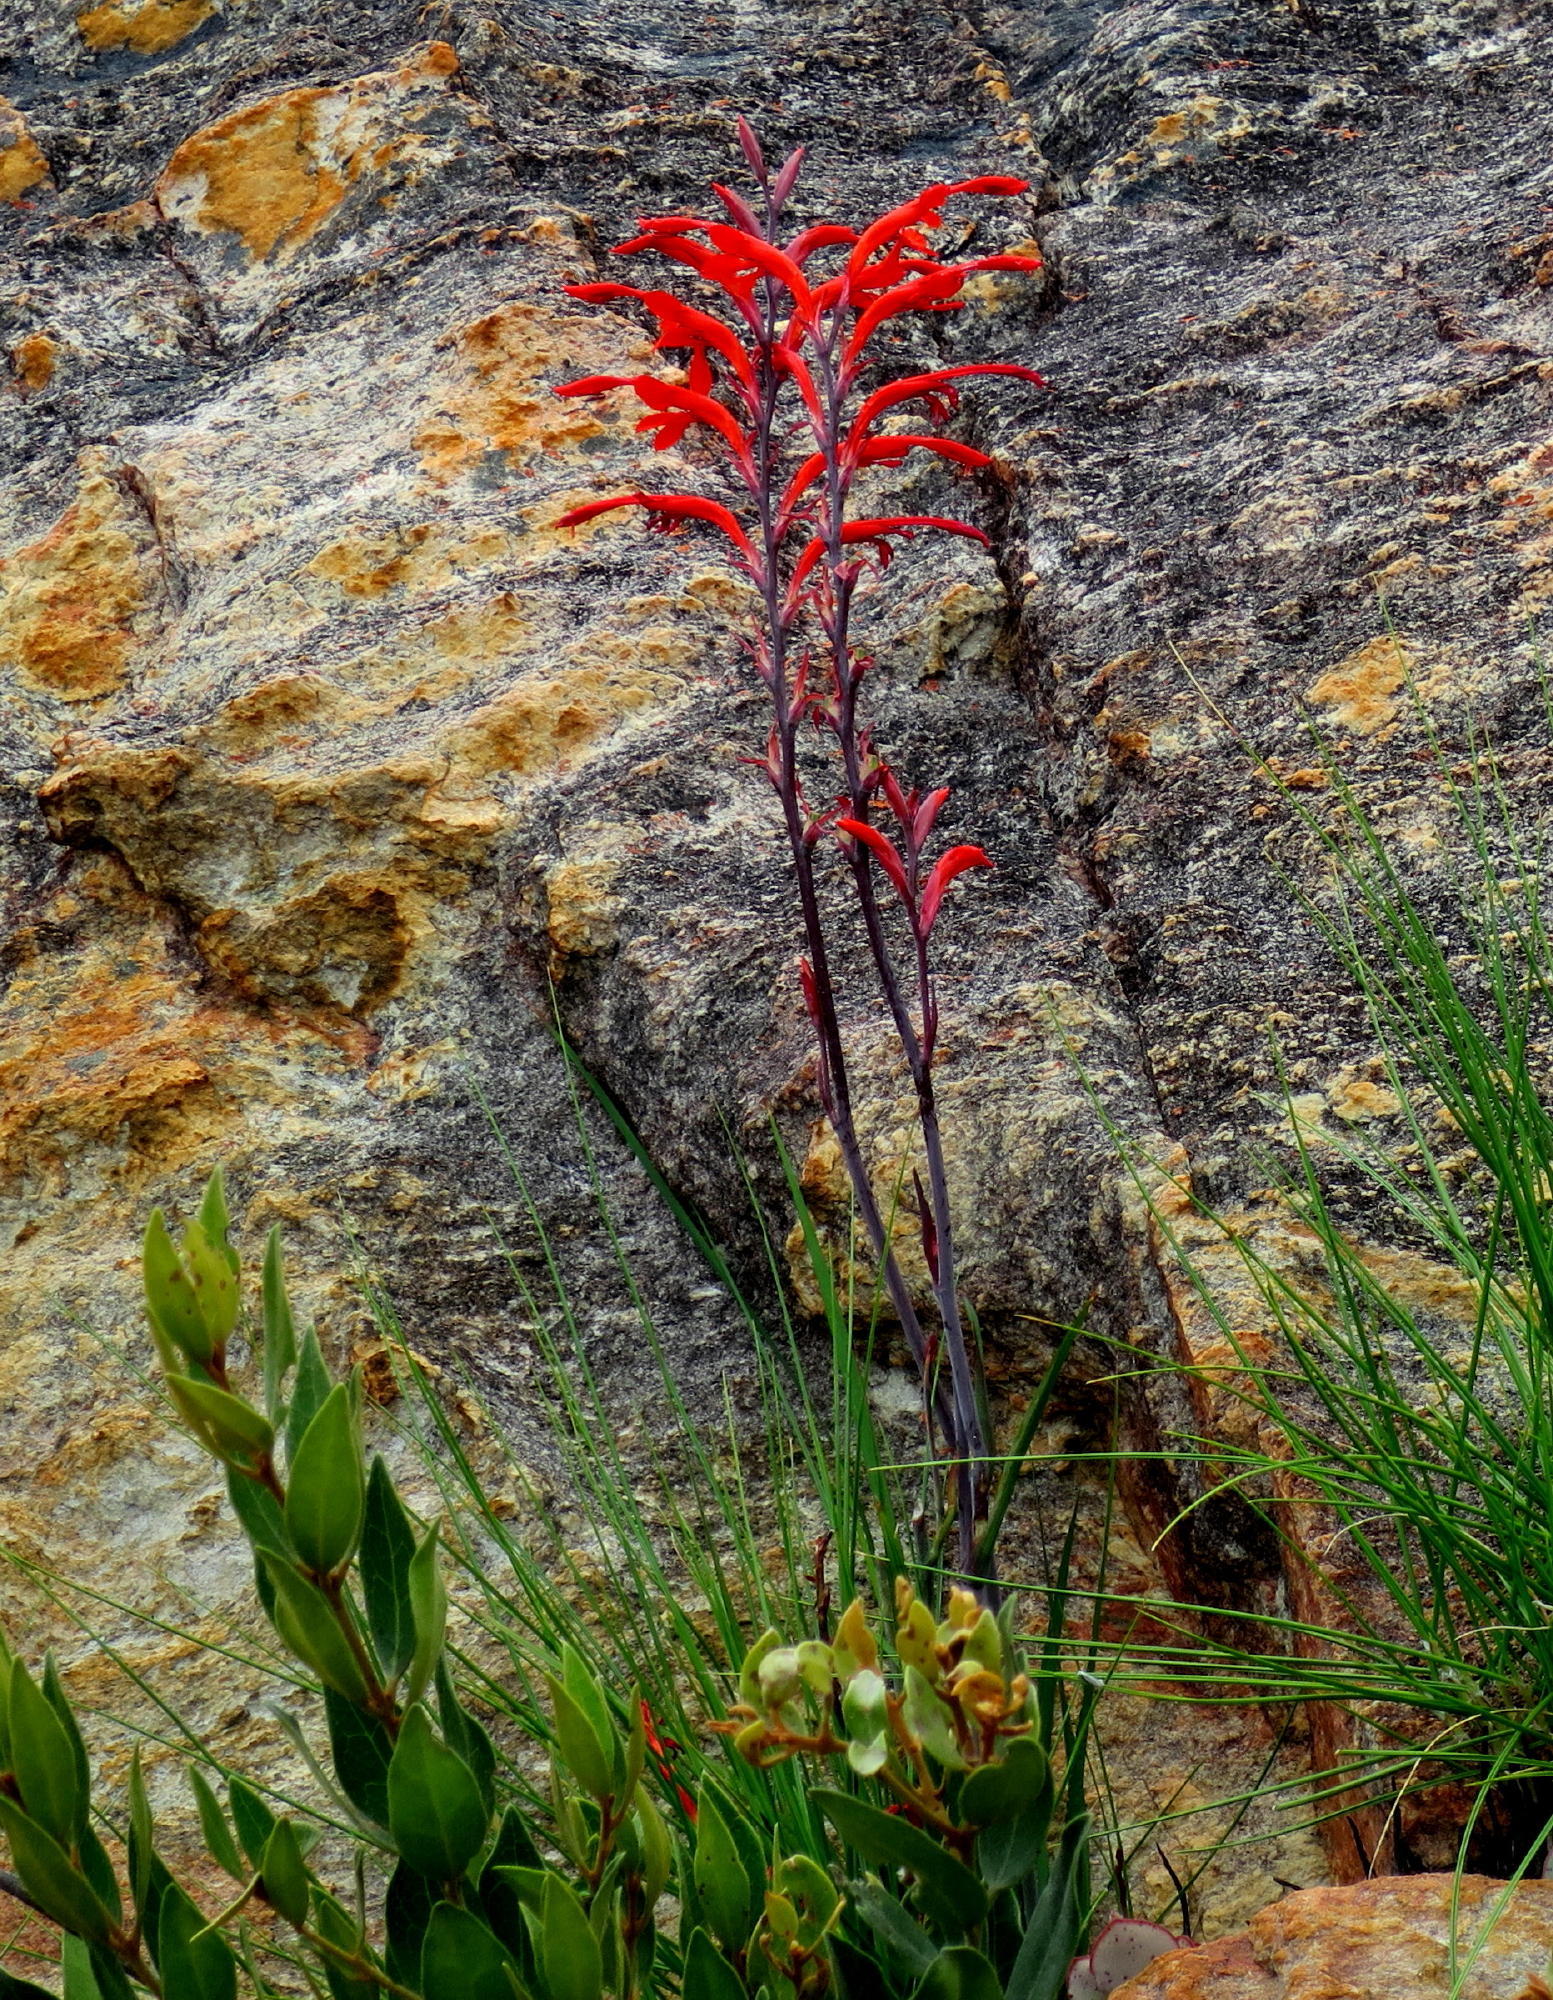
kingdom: Plantae
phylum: Tracheophyta
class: Liliopsida
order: Asparagales
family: Iridaceae
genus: Tritoniopsis
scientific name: Tritoniopsis caffra
